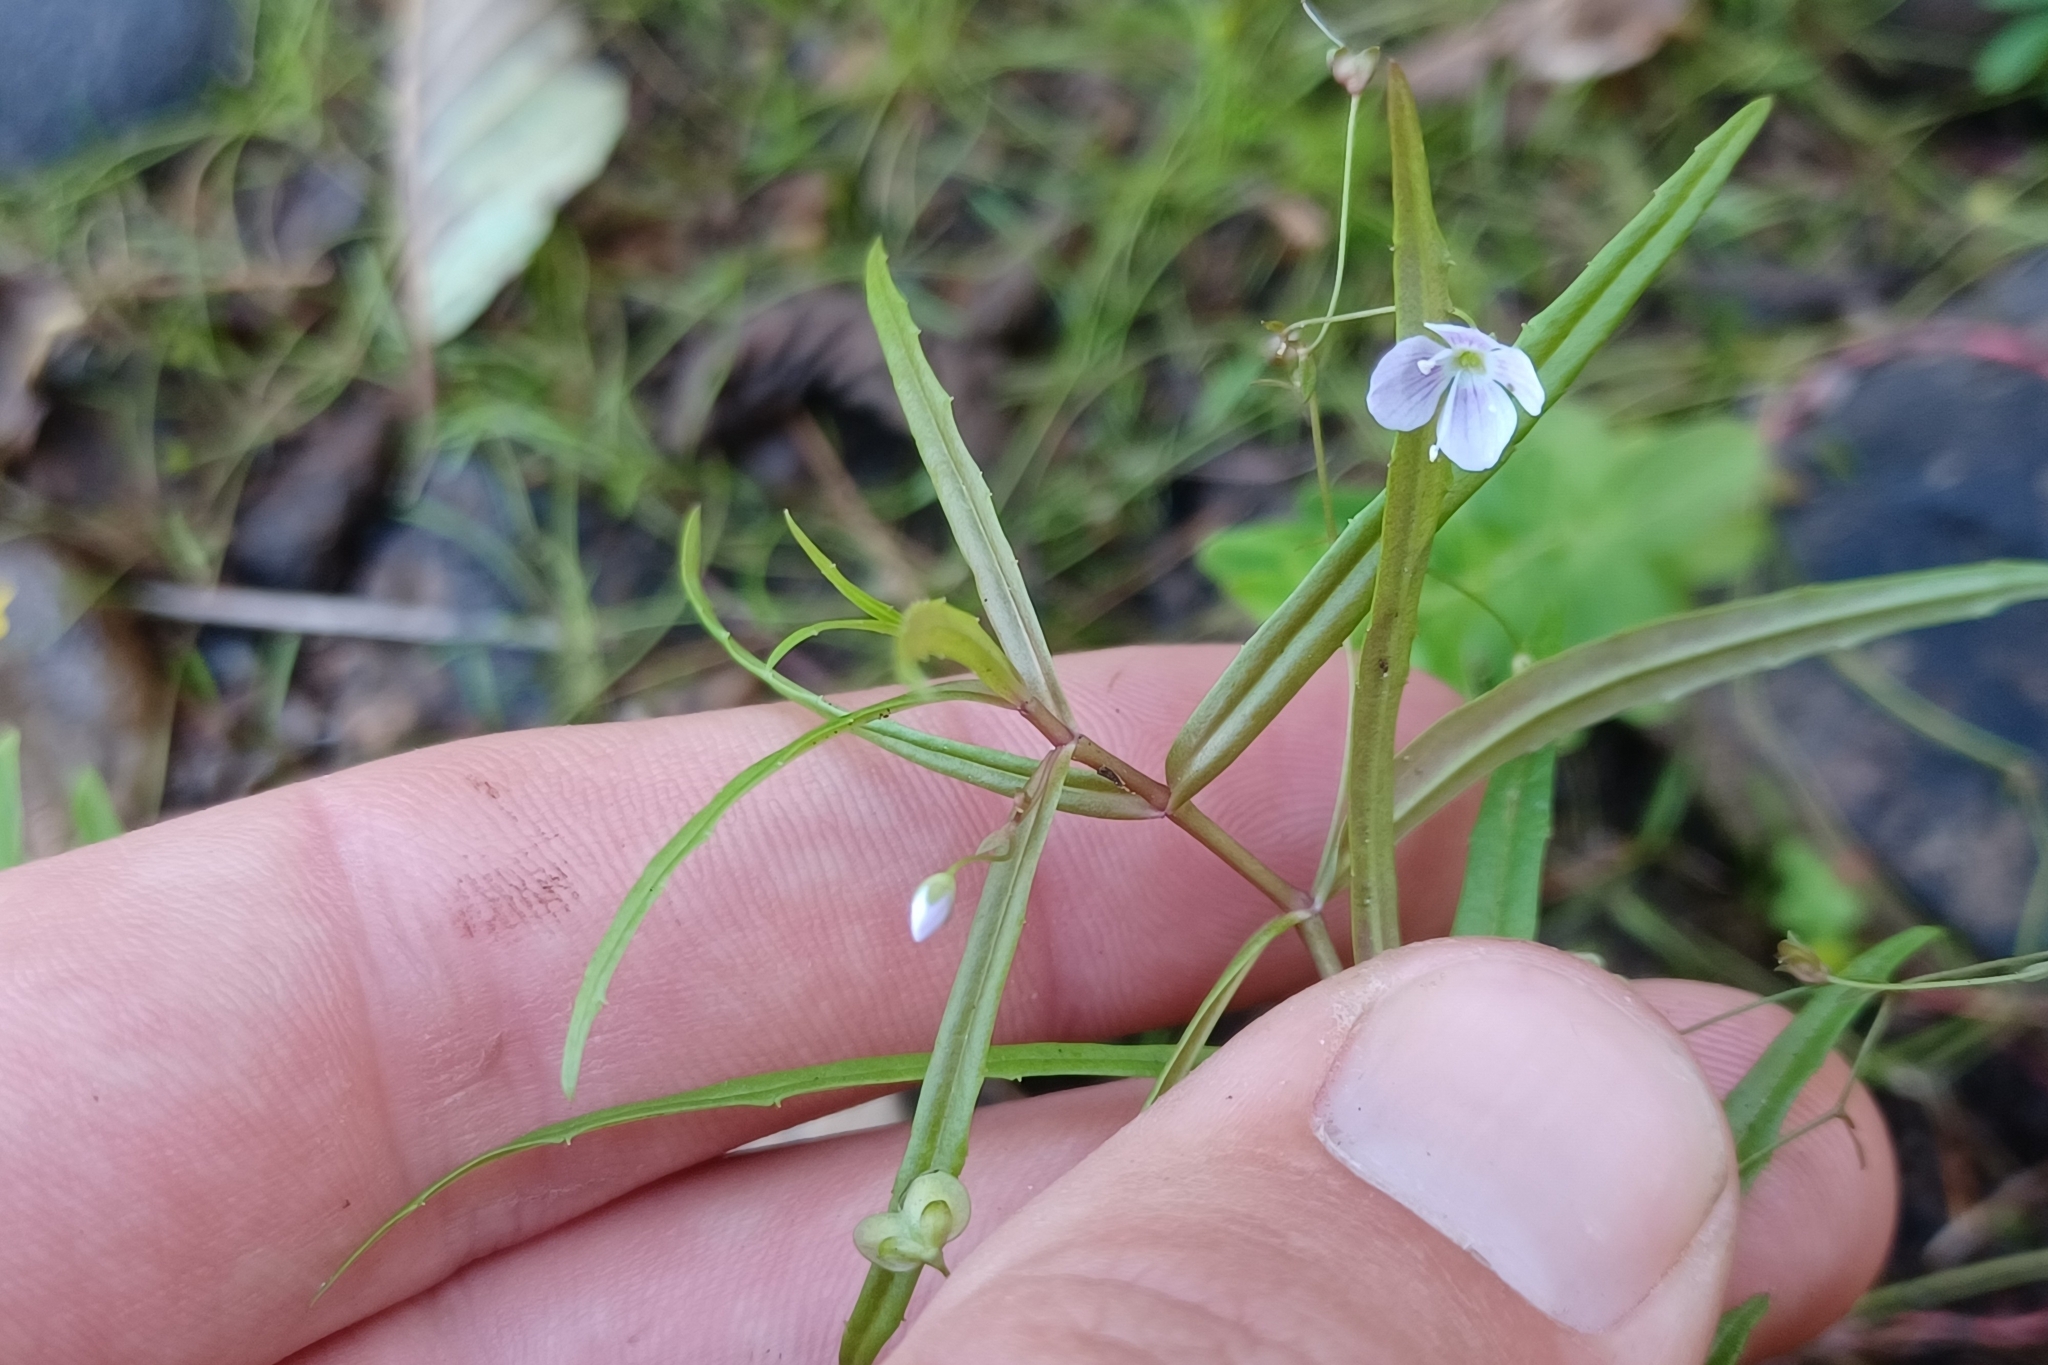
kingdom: Plantae
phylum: Tracheophyta
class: Magnoliopsida
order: Lamiales
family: Plantaginaceae
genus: Veronica
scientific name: Veronica scutellata
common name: Marsh speedwell
